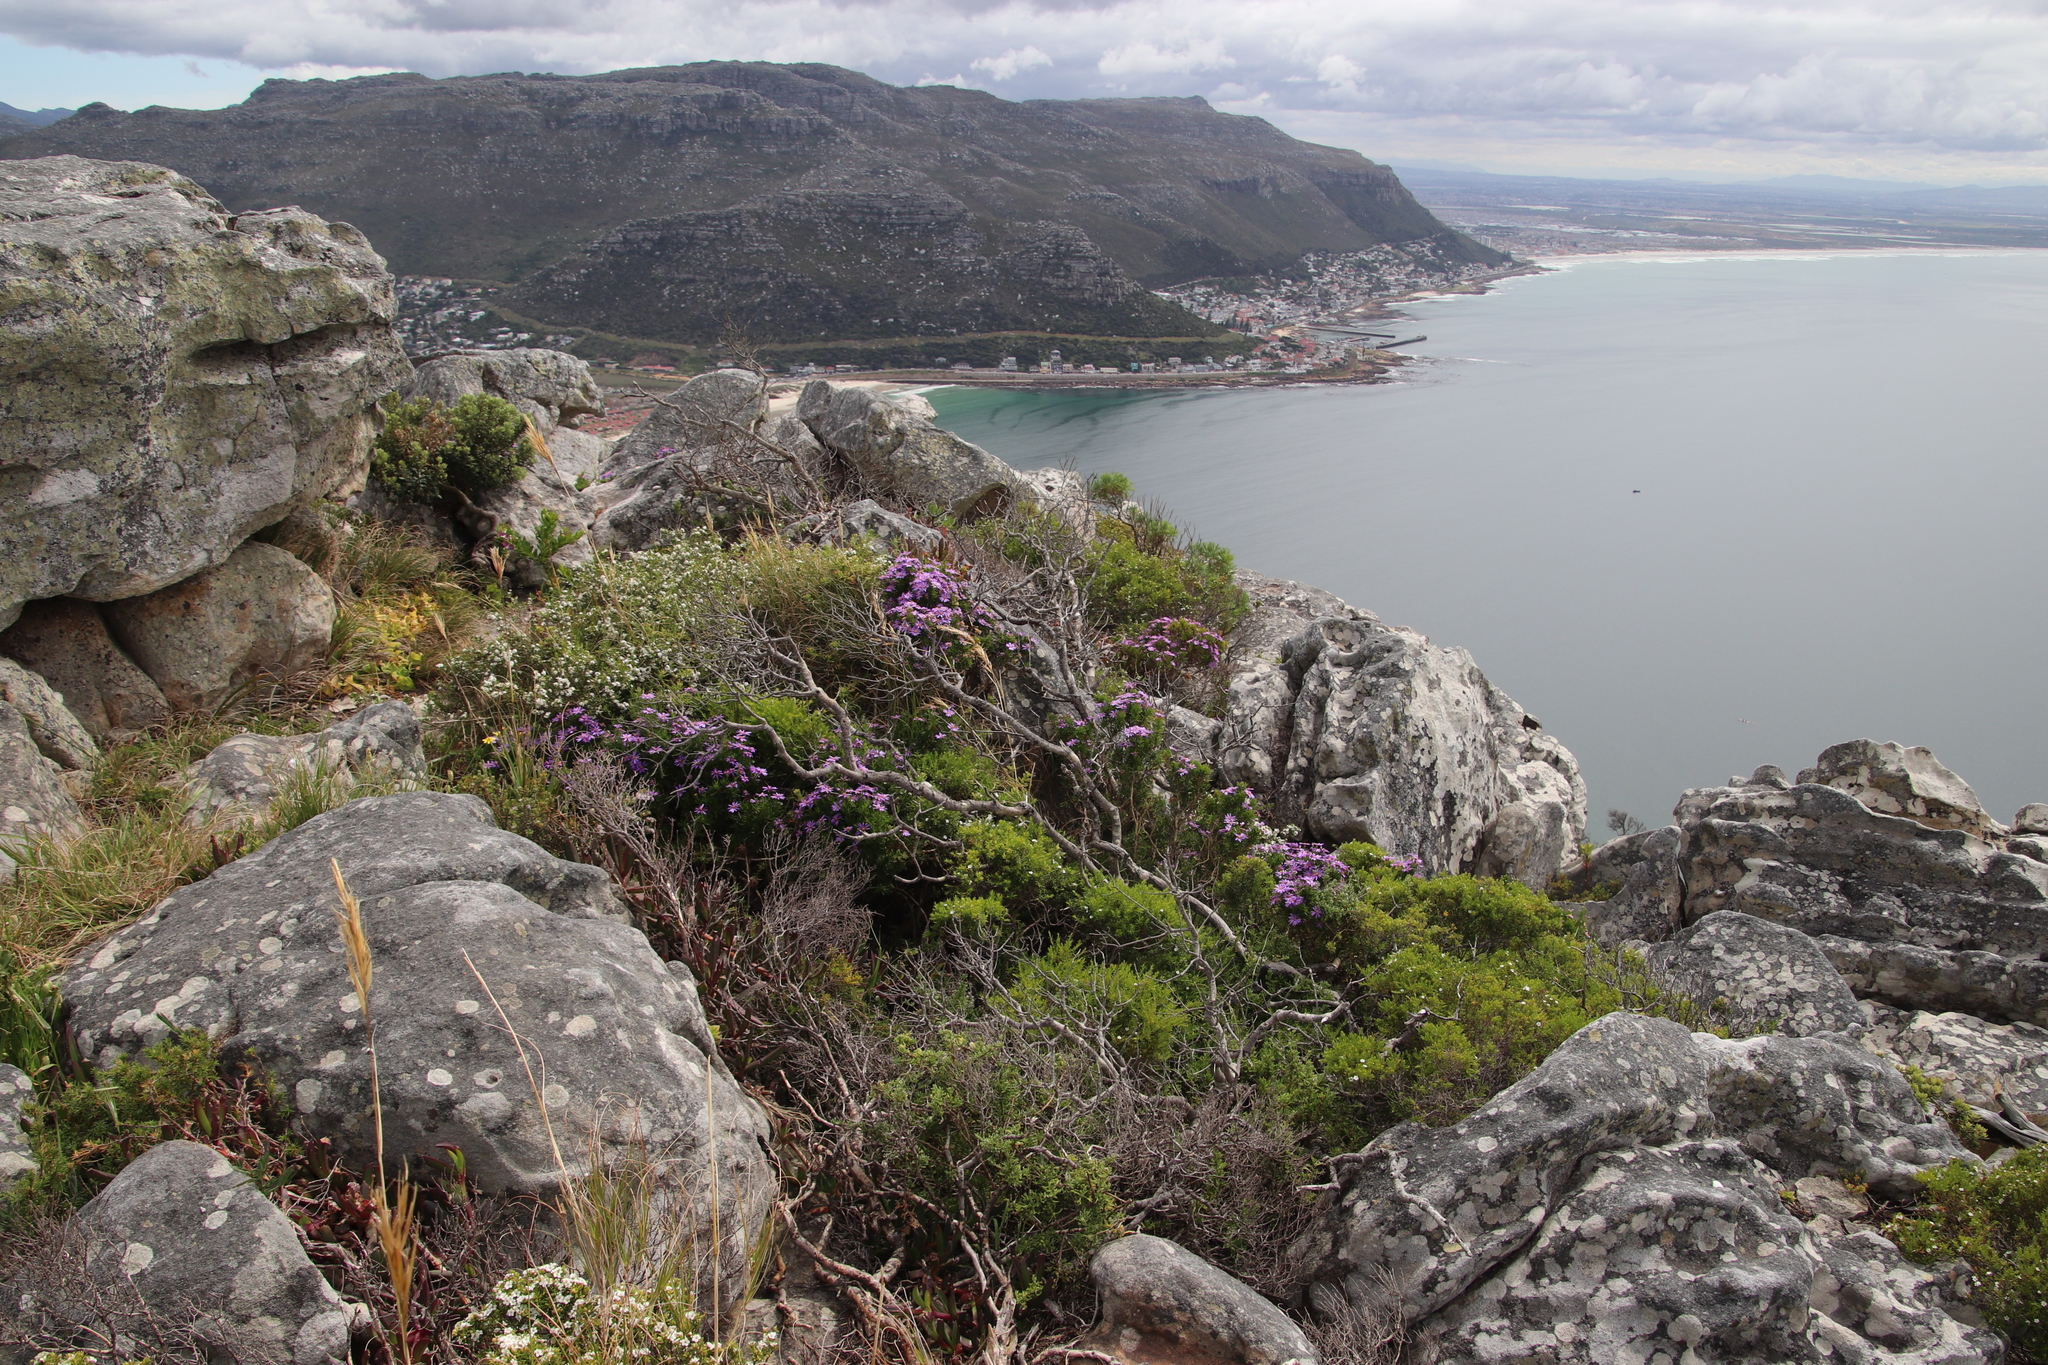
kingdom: Plantae
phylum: Tracheophyta
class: Magnoliopsida
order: Asterales
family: Asteraceae
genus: Felicia
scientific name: Felicia fruticosa
